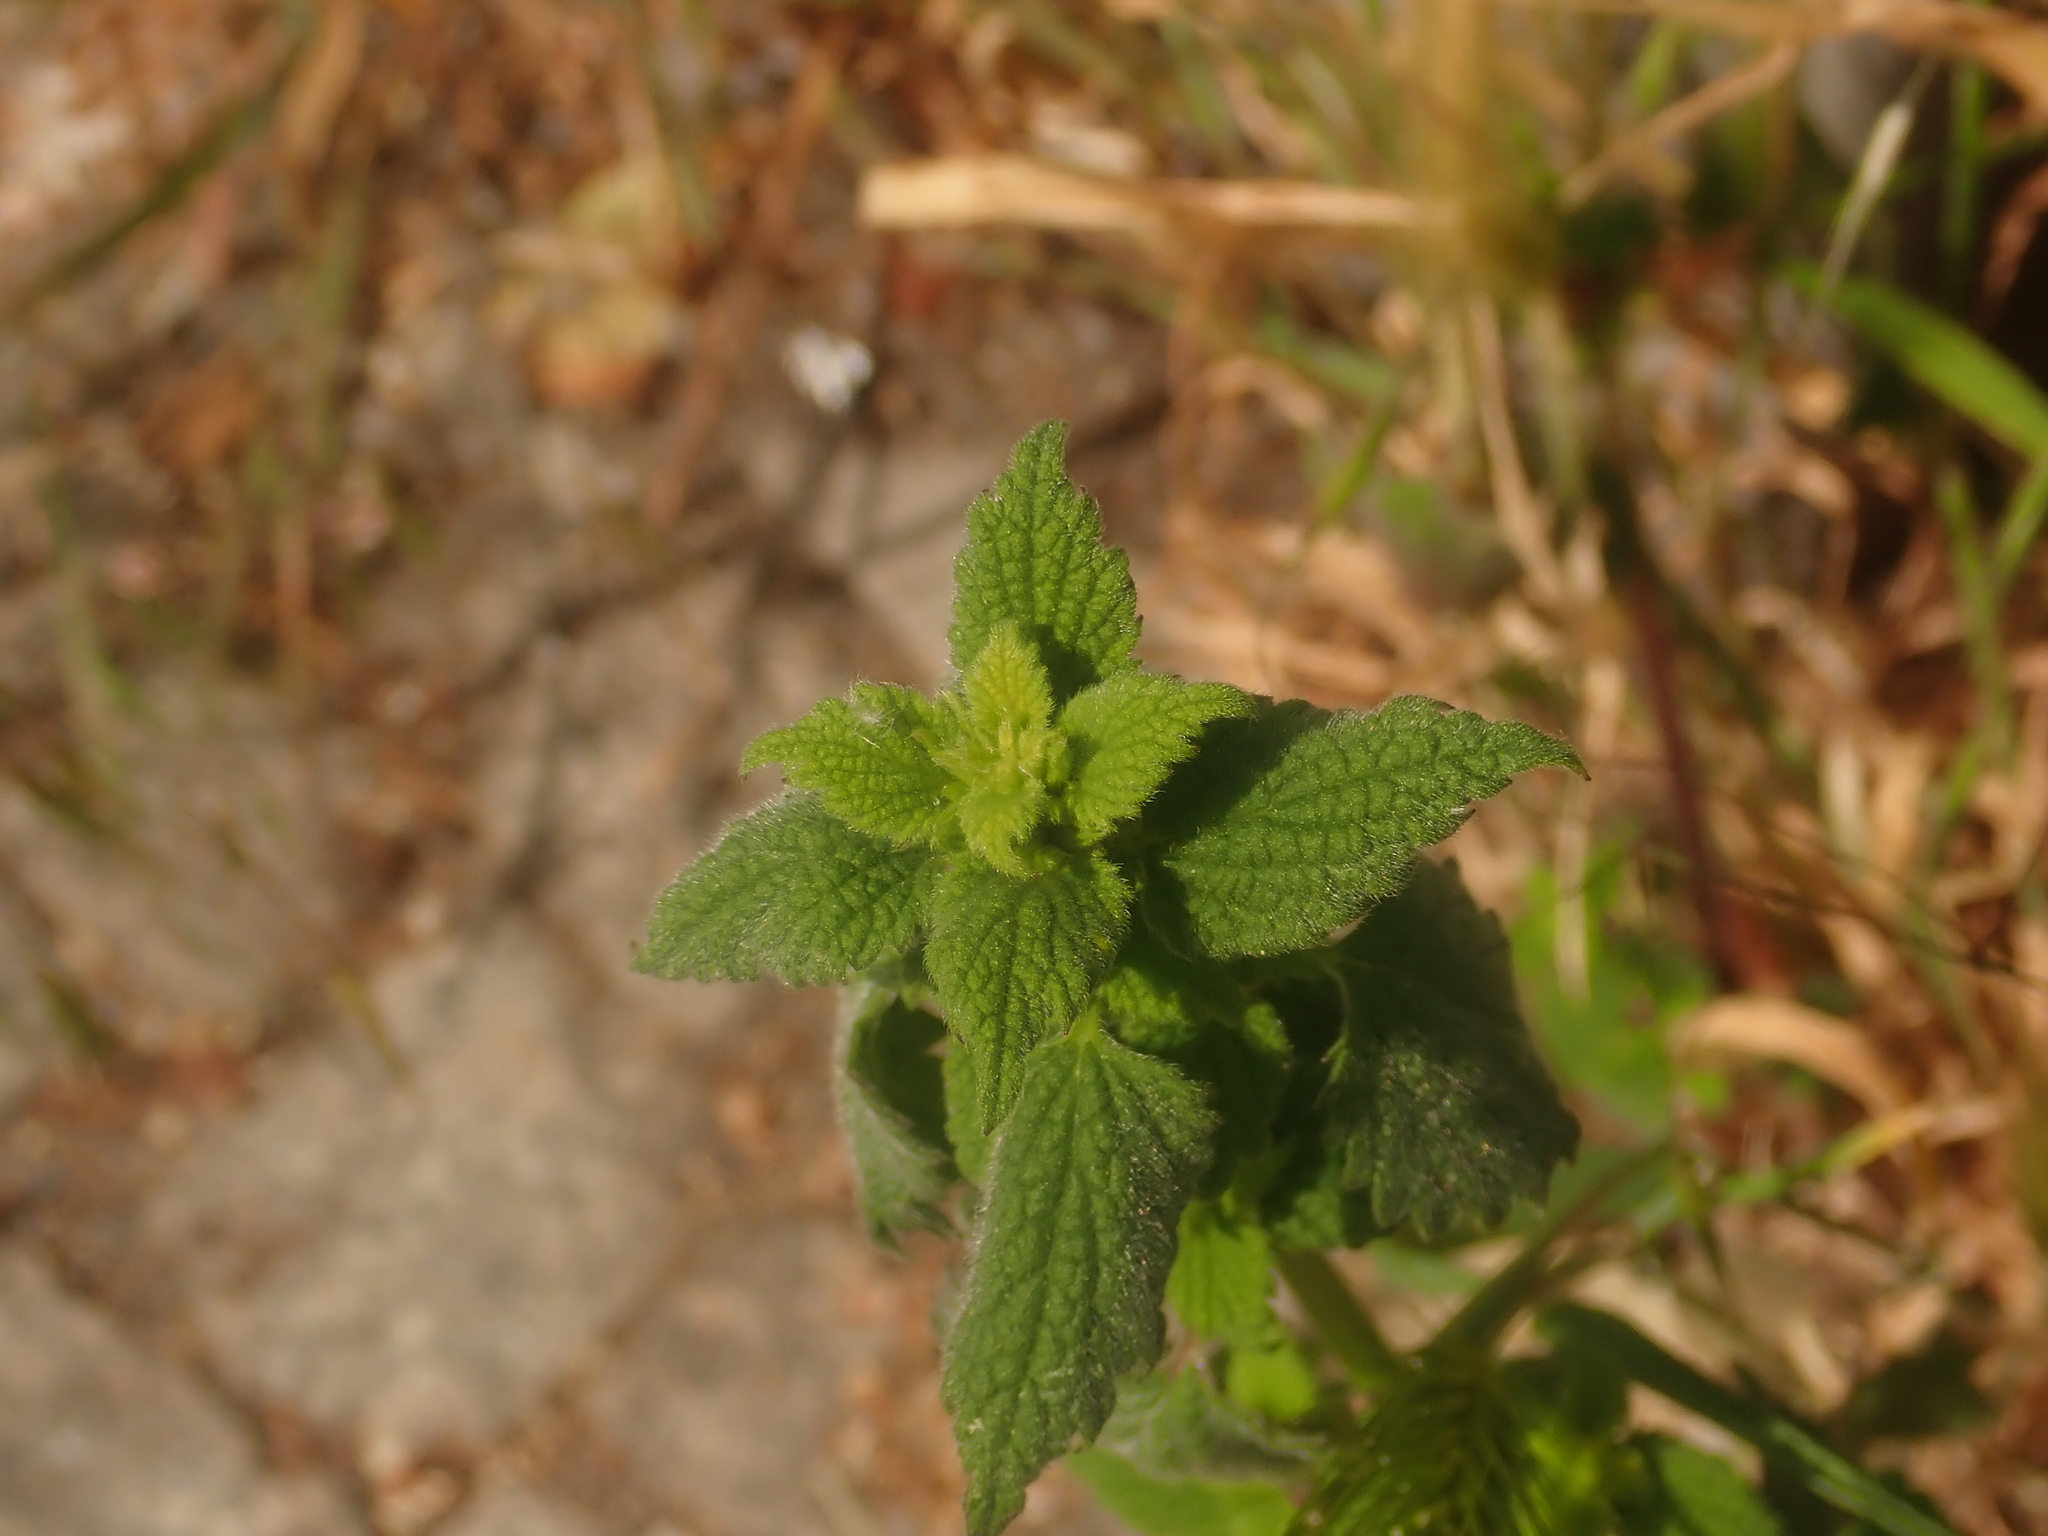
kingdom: Plantae
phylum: Tracheophyta
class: Magnoliopsida
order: Lamiales
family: Lamiaceae
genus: Ballota
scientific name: Ballota nigra
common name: Black horehound
